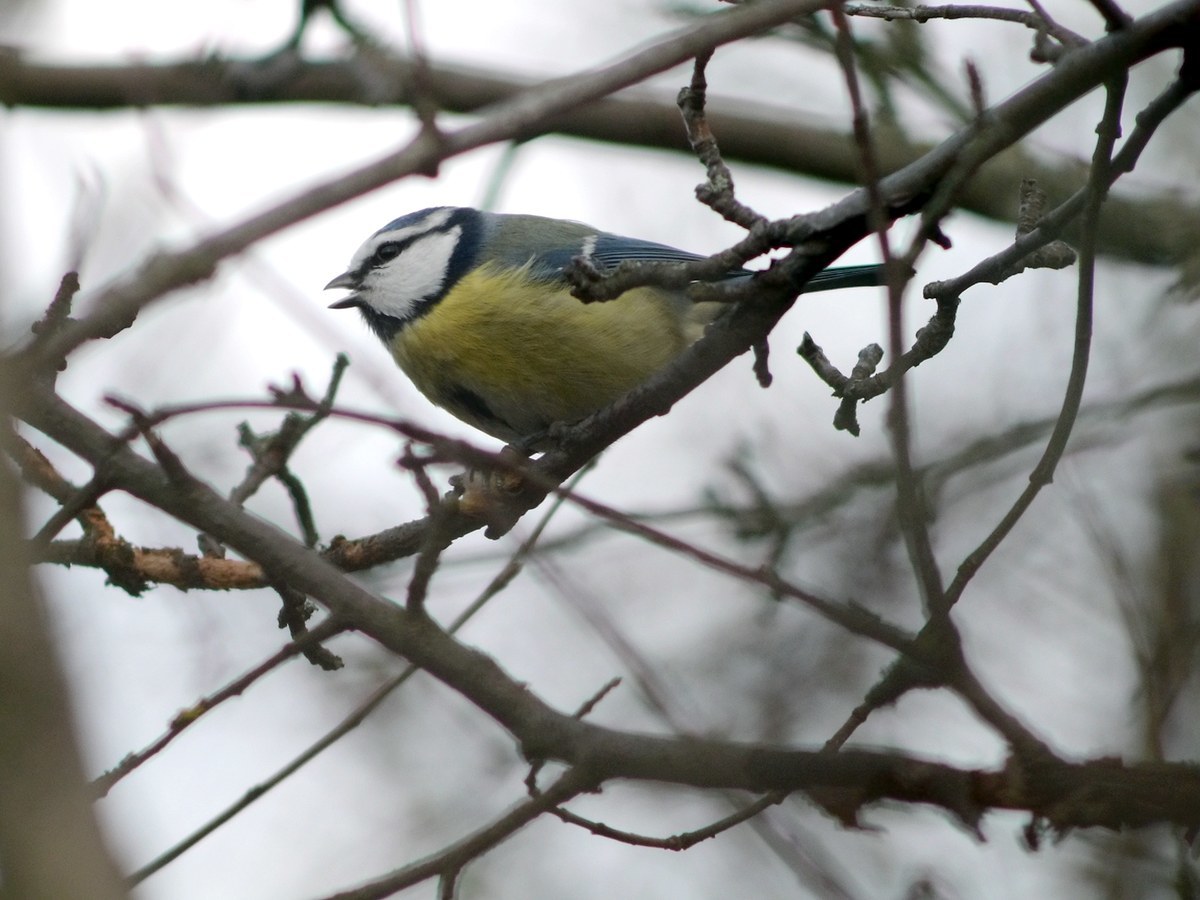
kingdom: Animalia
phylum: Chordata
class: Aves
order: Passeriformes
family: Paridae
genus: Cyanistes
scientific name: Cyanistes caeruleus
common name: Eurasian blue tit
